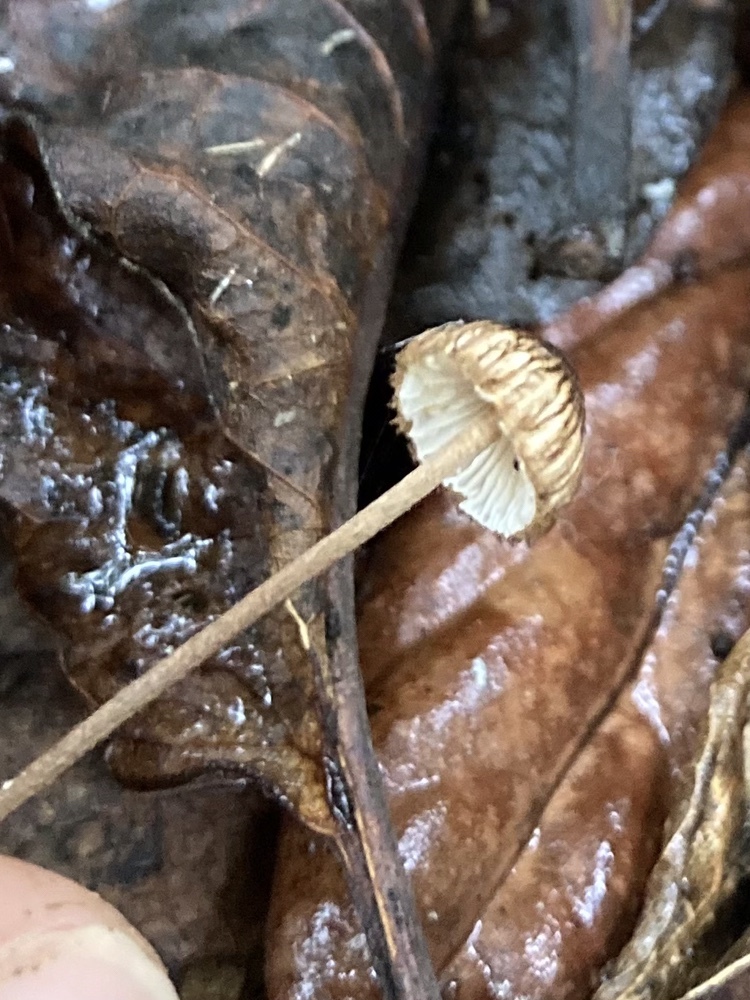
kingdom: Fungi
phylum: Basidiomycota
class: Agaricomycetes
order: Agaricales
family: Marasmiaceae
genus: Crinipellis
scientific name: Crinipellis procera
